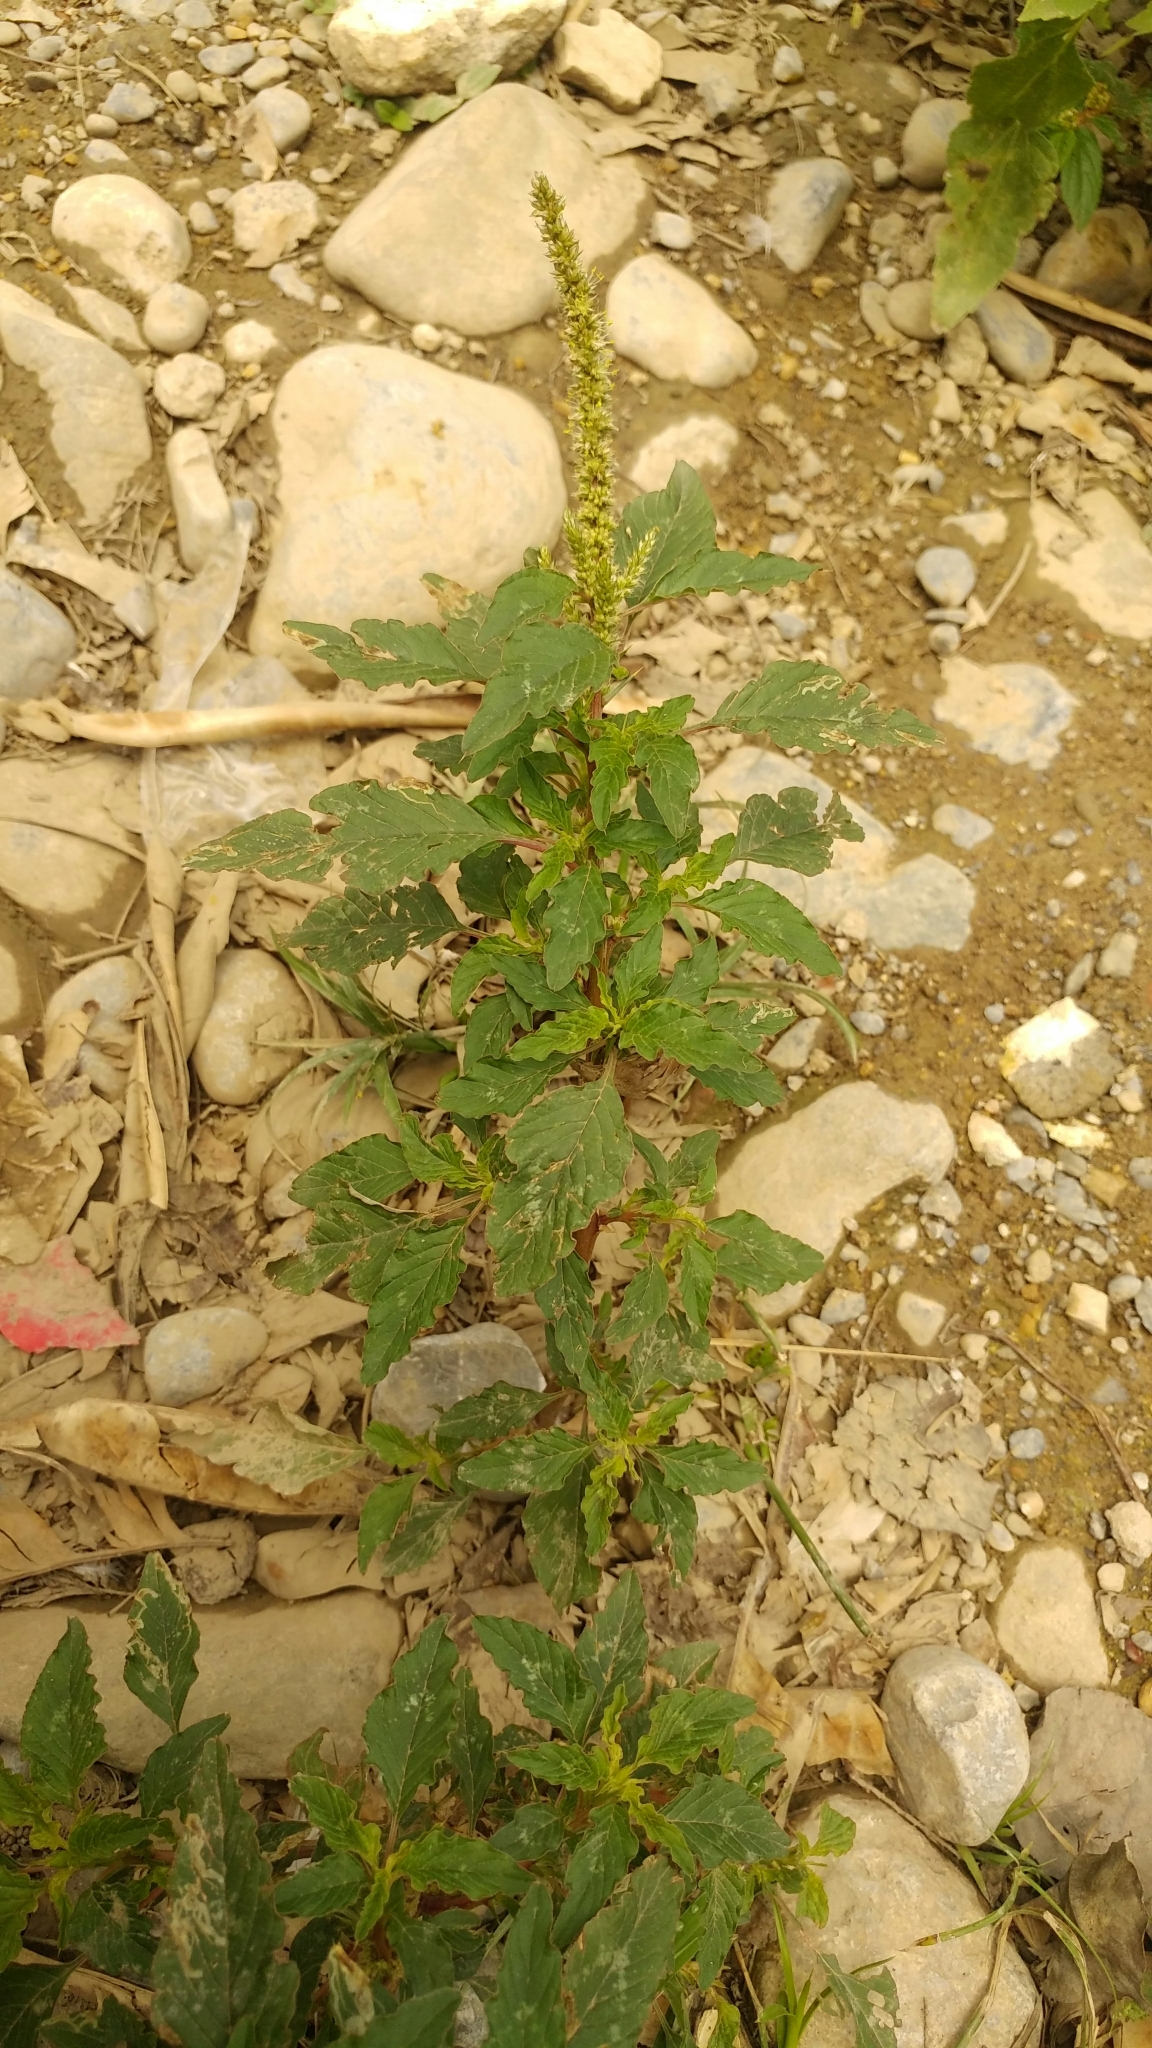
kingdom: Plantae
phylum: Tracheophyta
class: Magnoliopsida
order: Caryophyllales
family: Amaranthaceae
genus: Amaranthus
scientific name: Amaranthus hybridus
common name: Green amaranth
